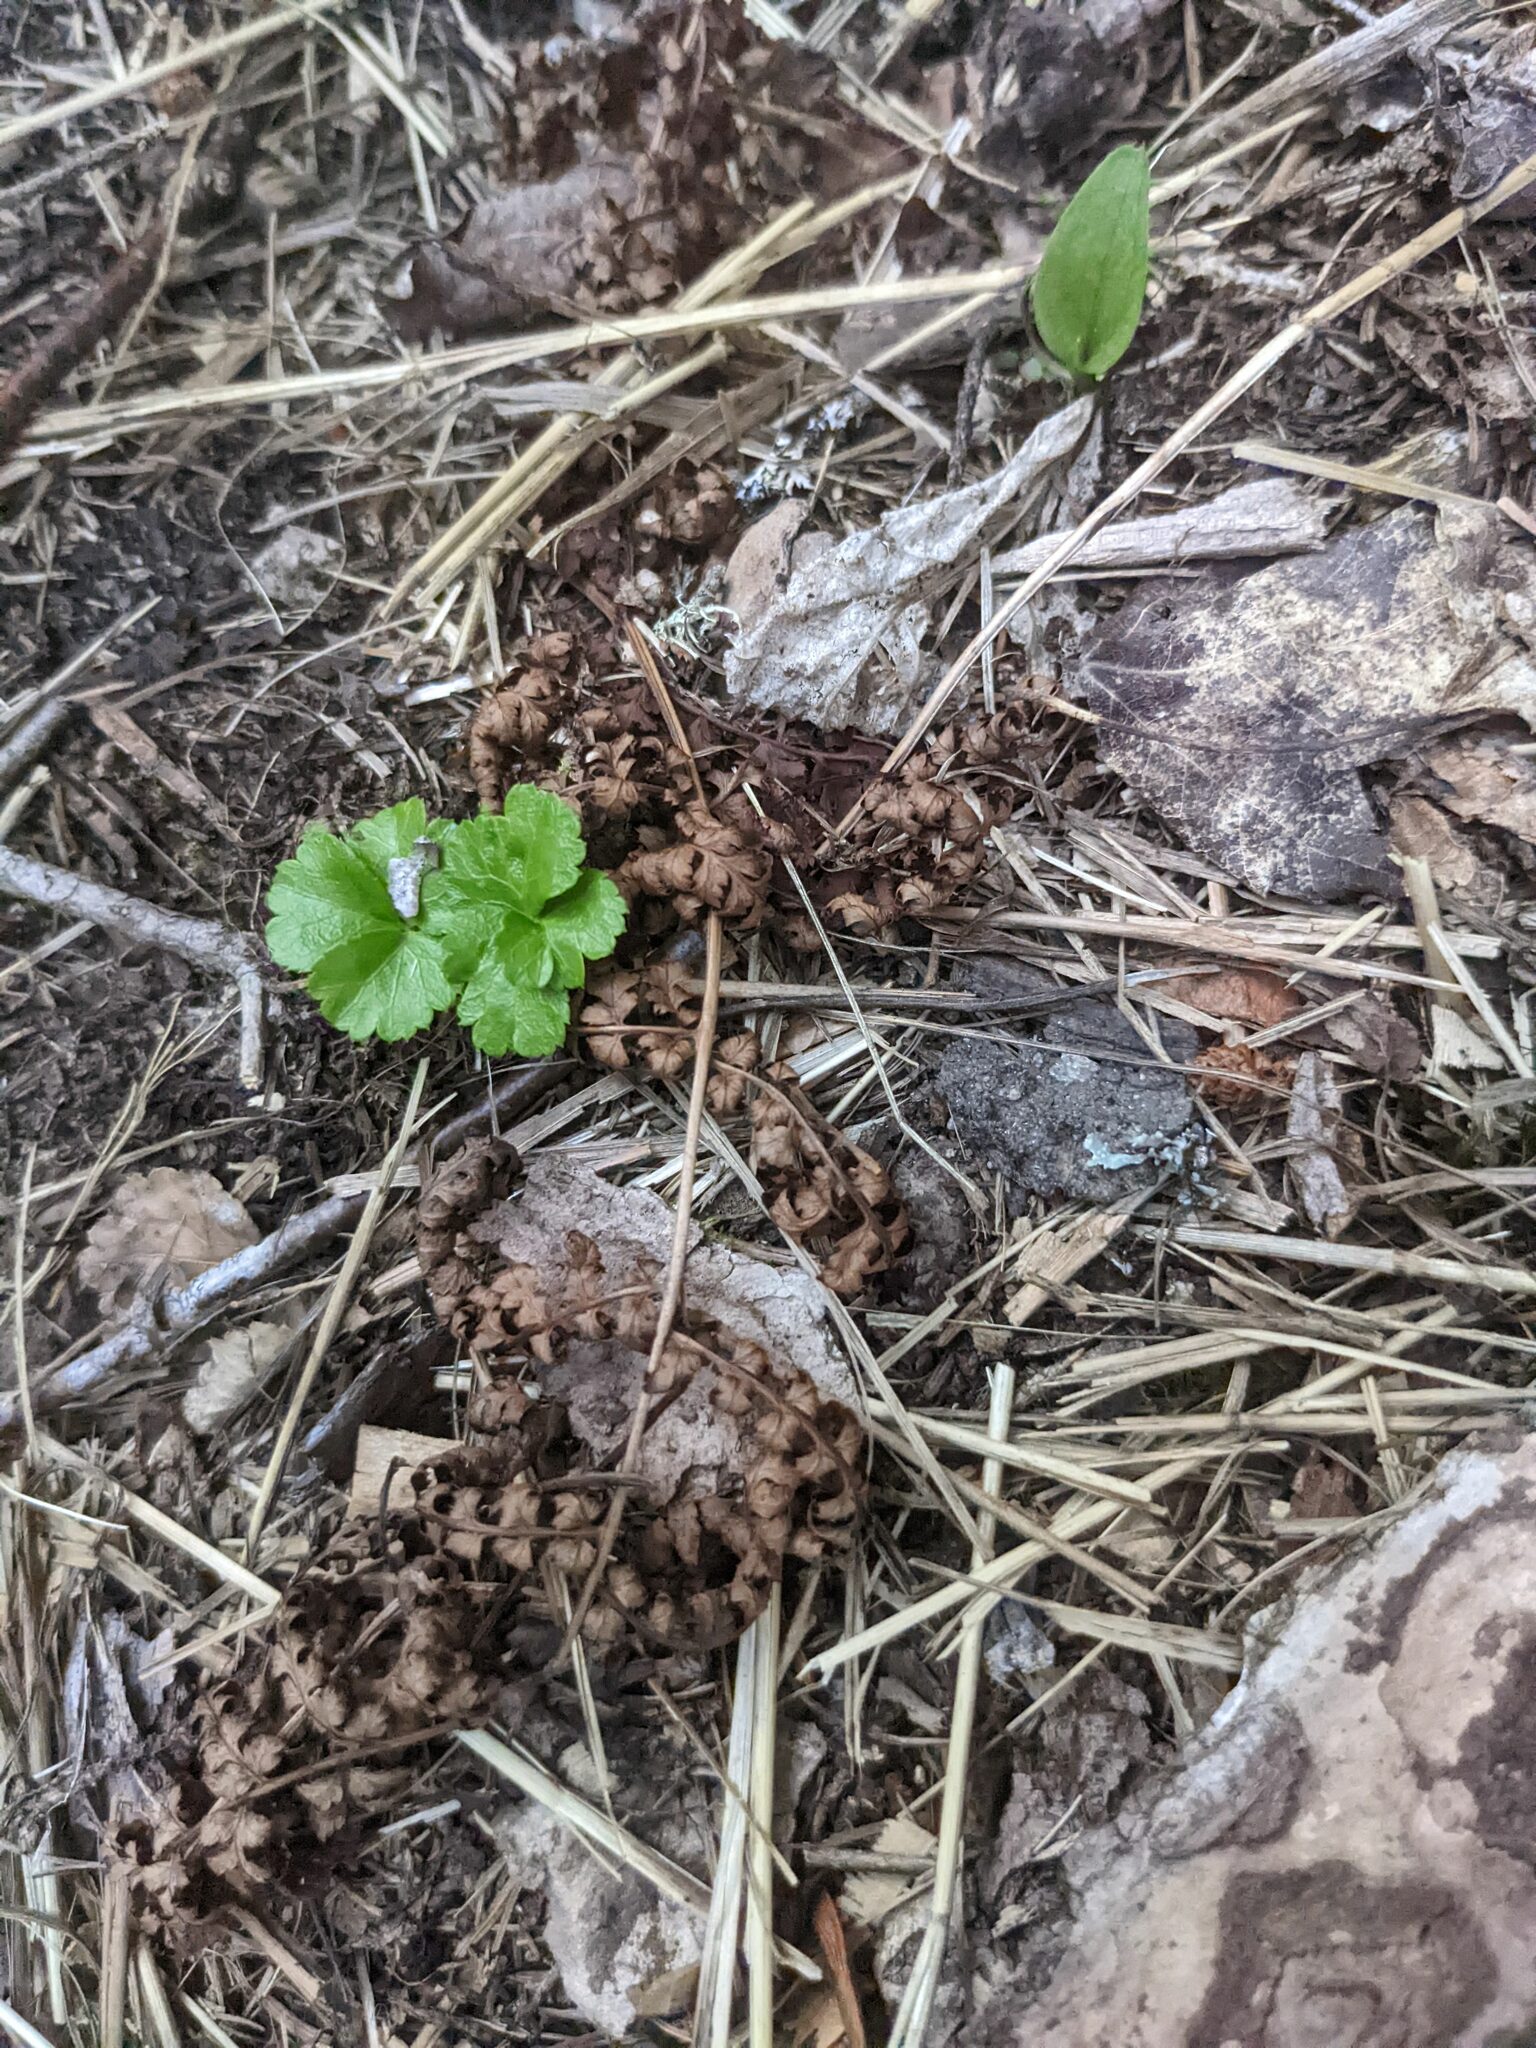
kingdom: Plantae
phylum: Tracheophyta
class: Magnoliopsida
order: Ranunculales
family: Ranunculaceae
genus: Coptis
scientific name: Coptis trifolia
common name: Canker-root
